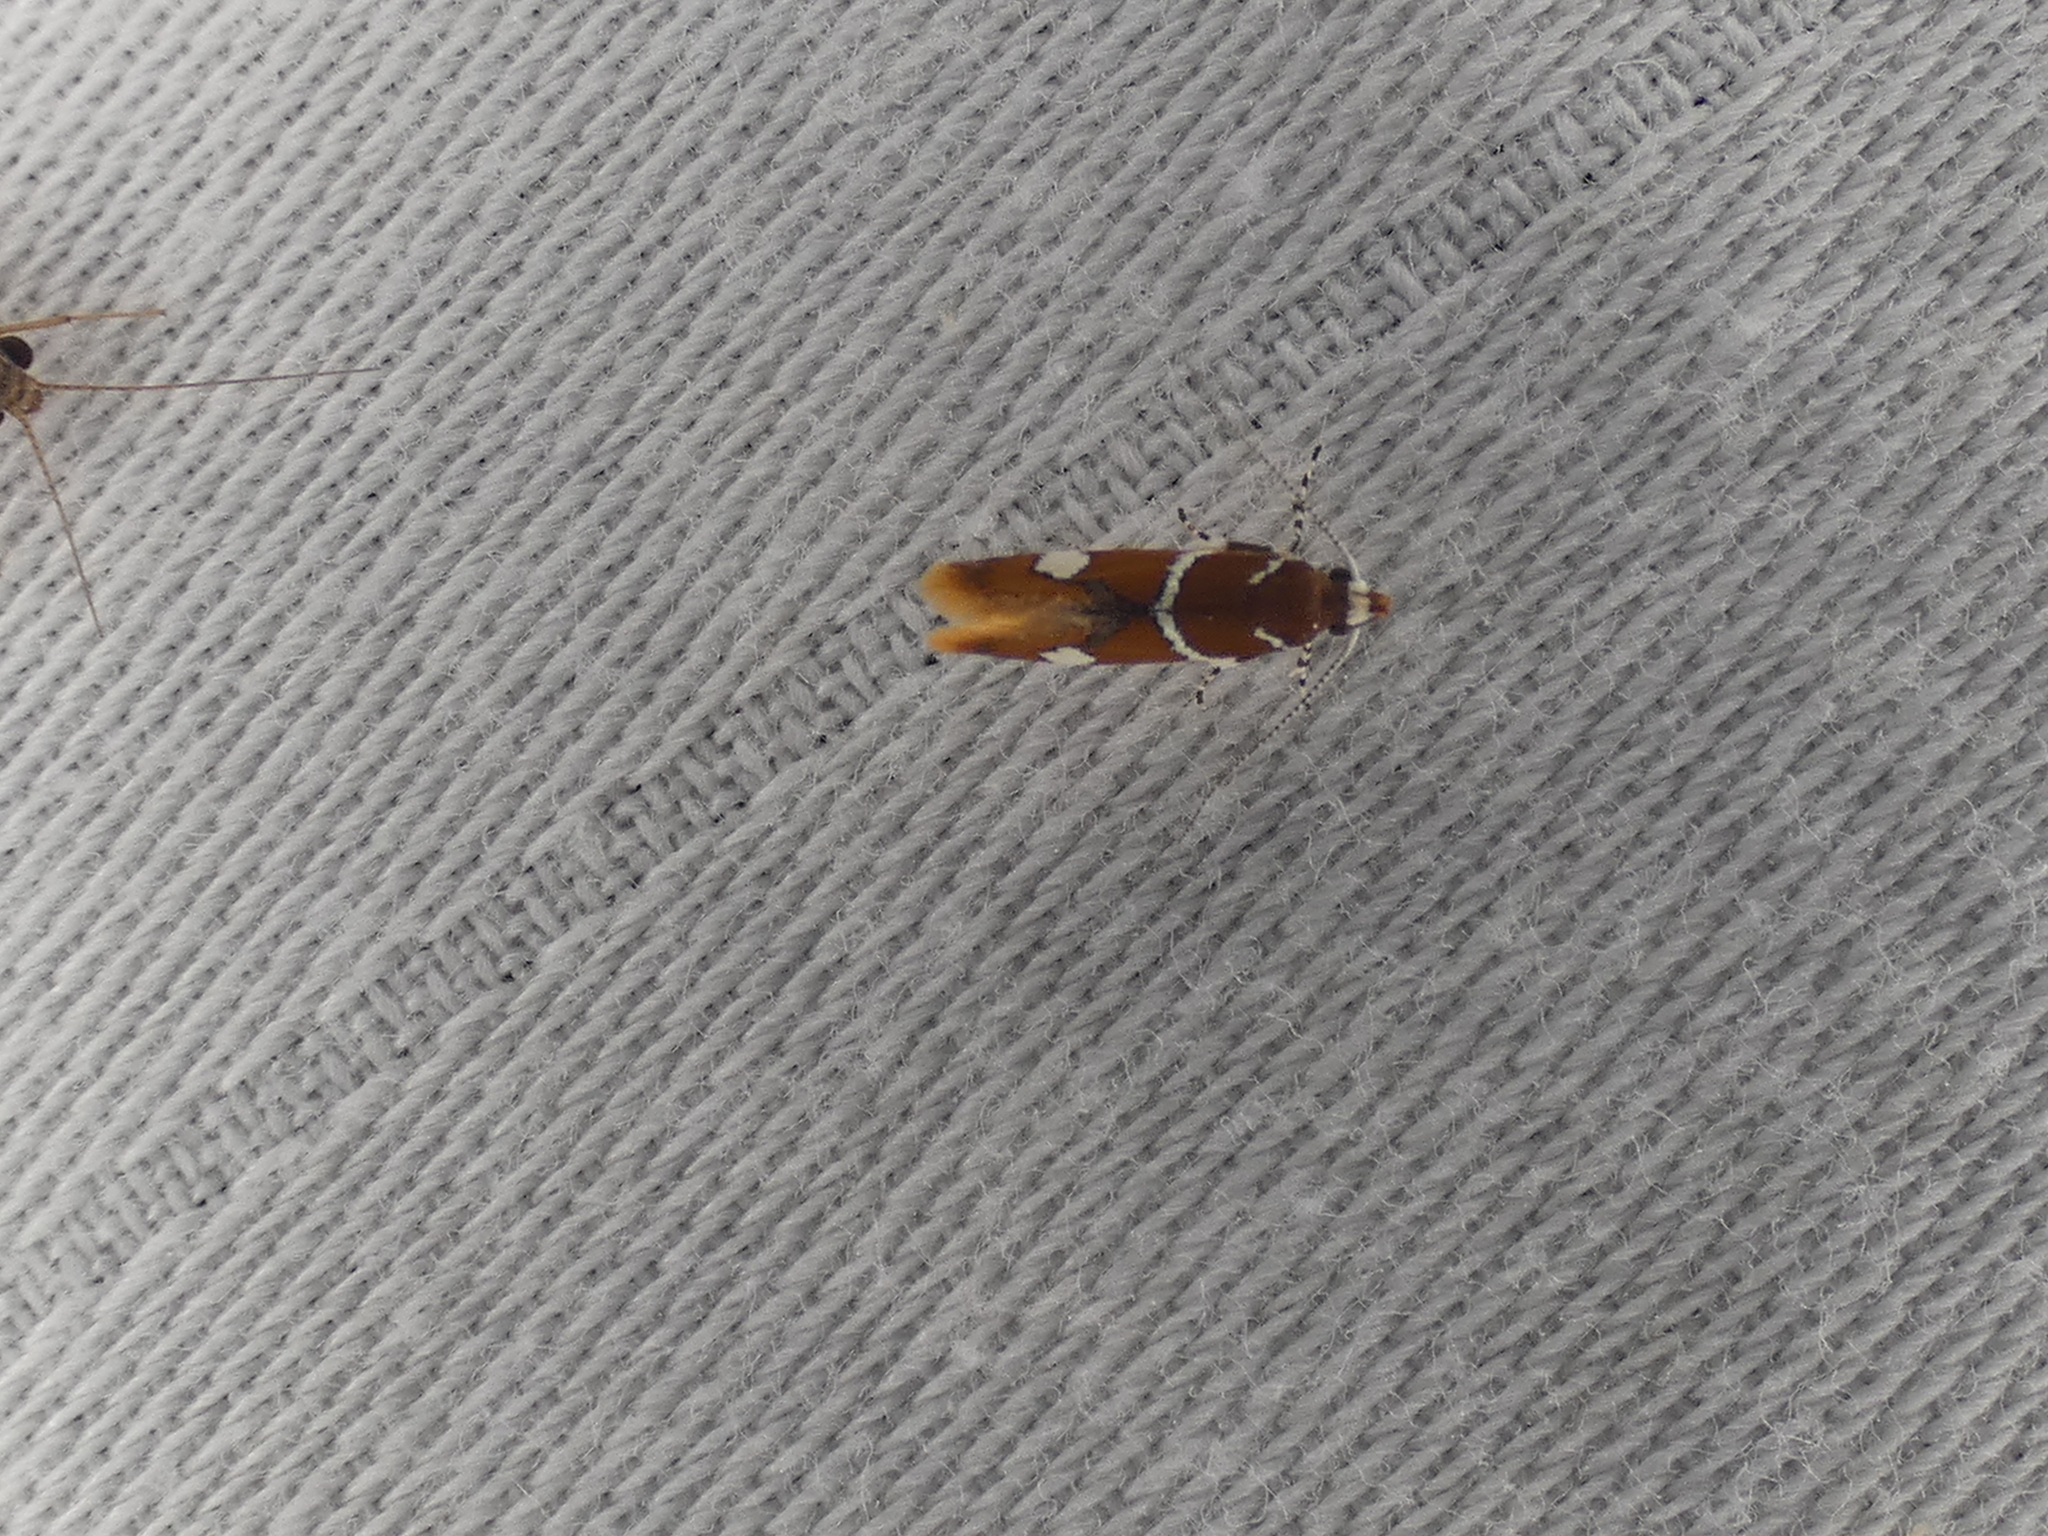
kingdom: Animalia
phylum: Arthropoda
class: Insecta
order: Lepidoptera
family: Oecophoridae
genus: Promalactis
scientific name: Promalactis suzukiella
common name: Moth
